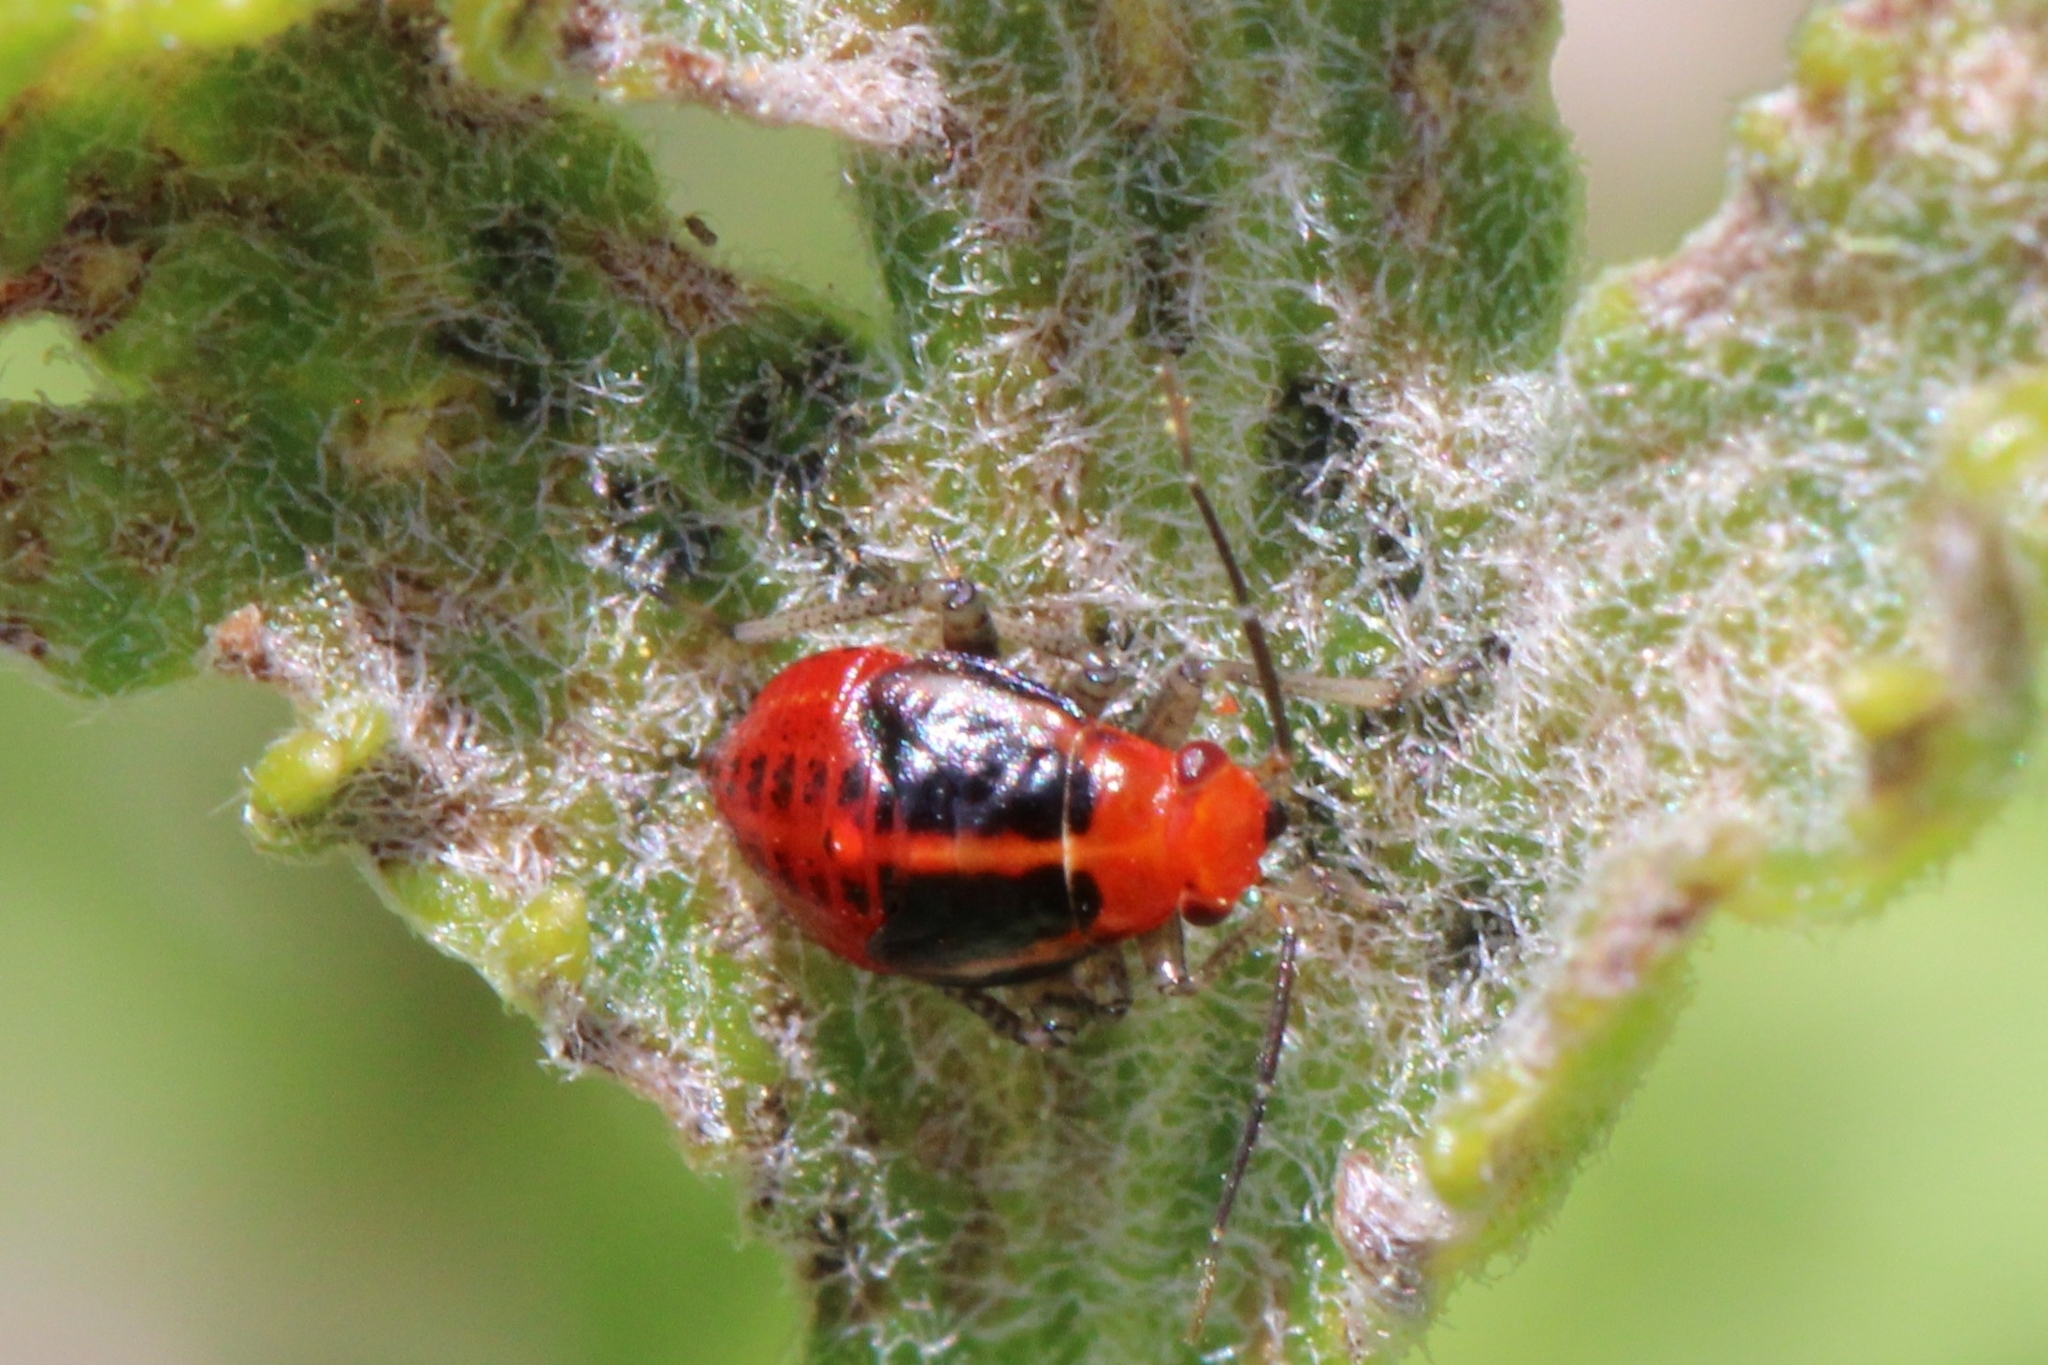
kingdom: Animalia
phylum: Arthropoda
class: Insecta
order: Hemiptera
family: Miridae
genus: Poecilocapsus
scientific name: Poecilocapsus lineatus
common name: Four-lined plant bug
